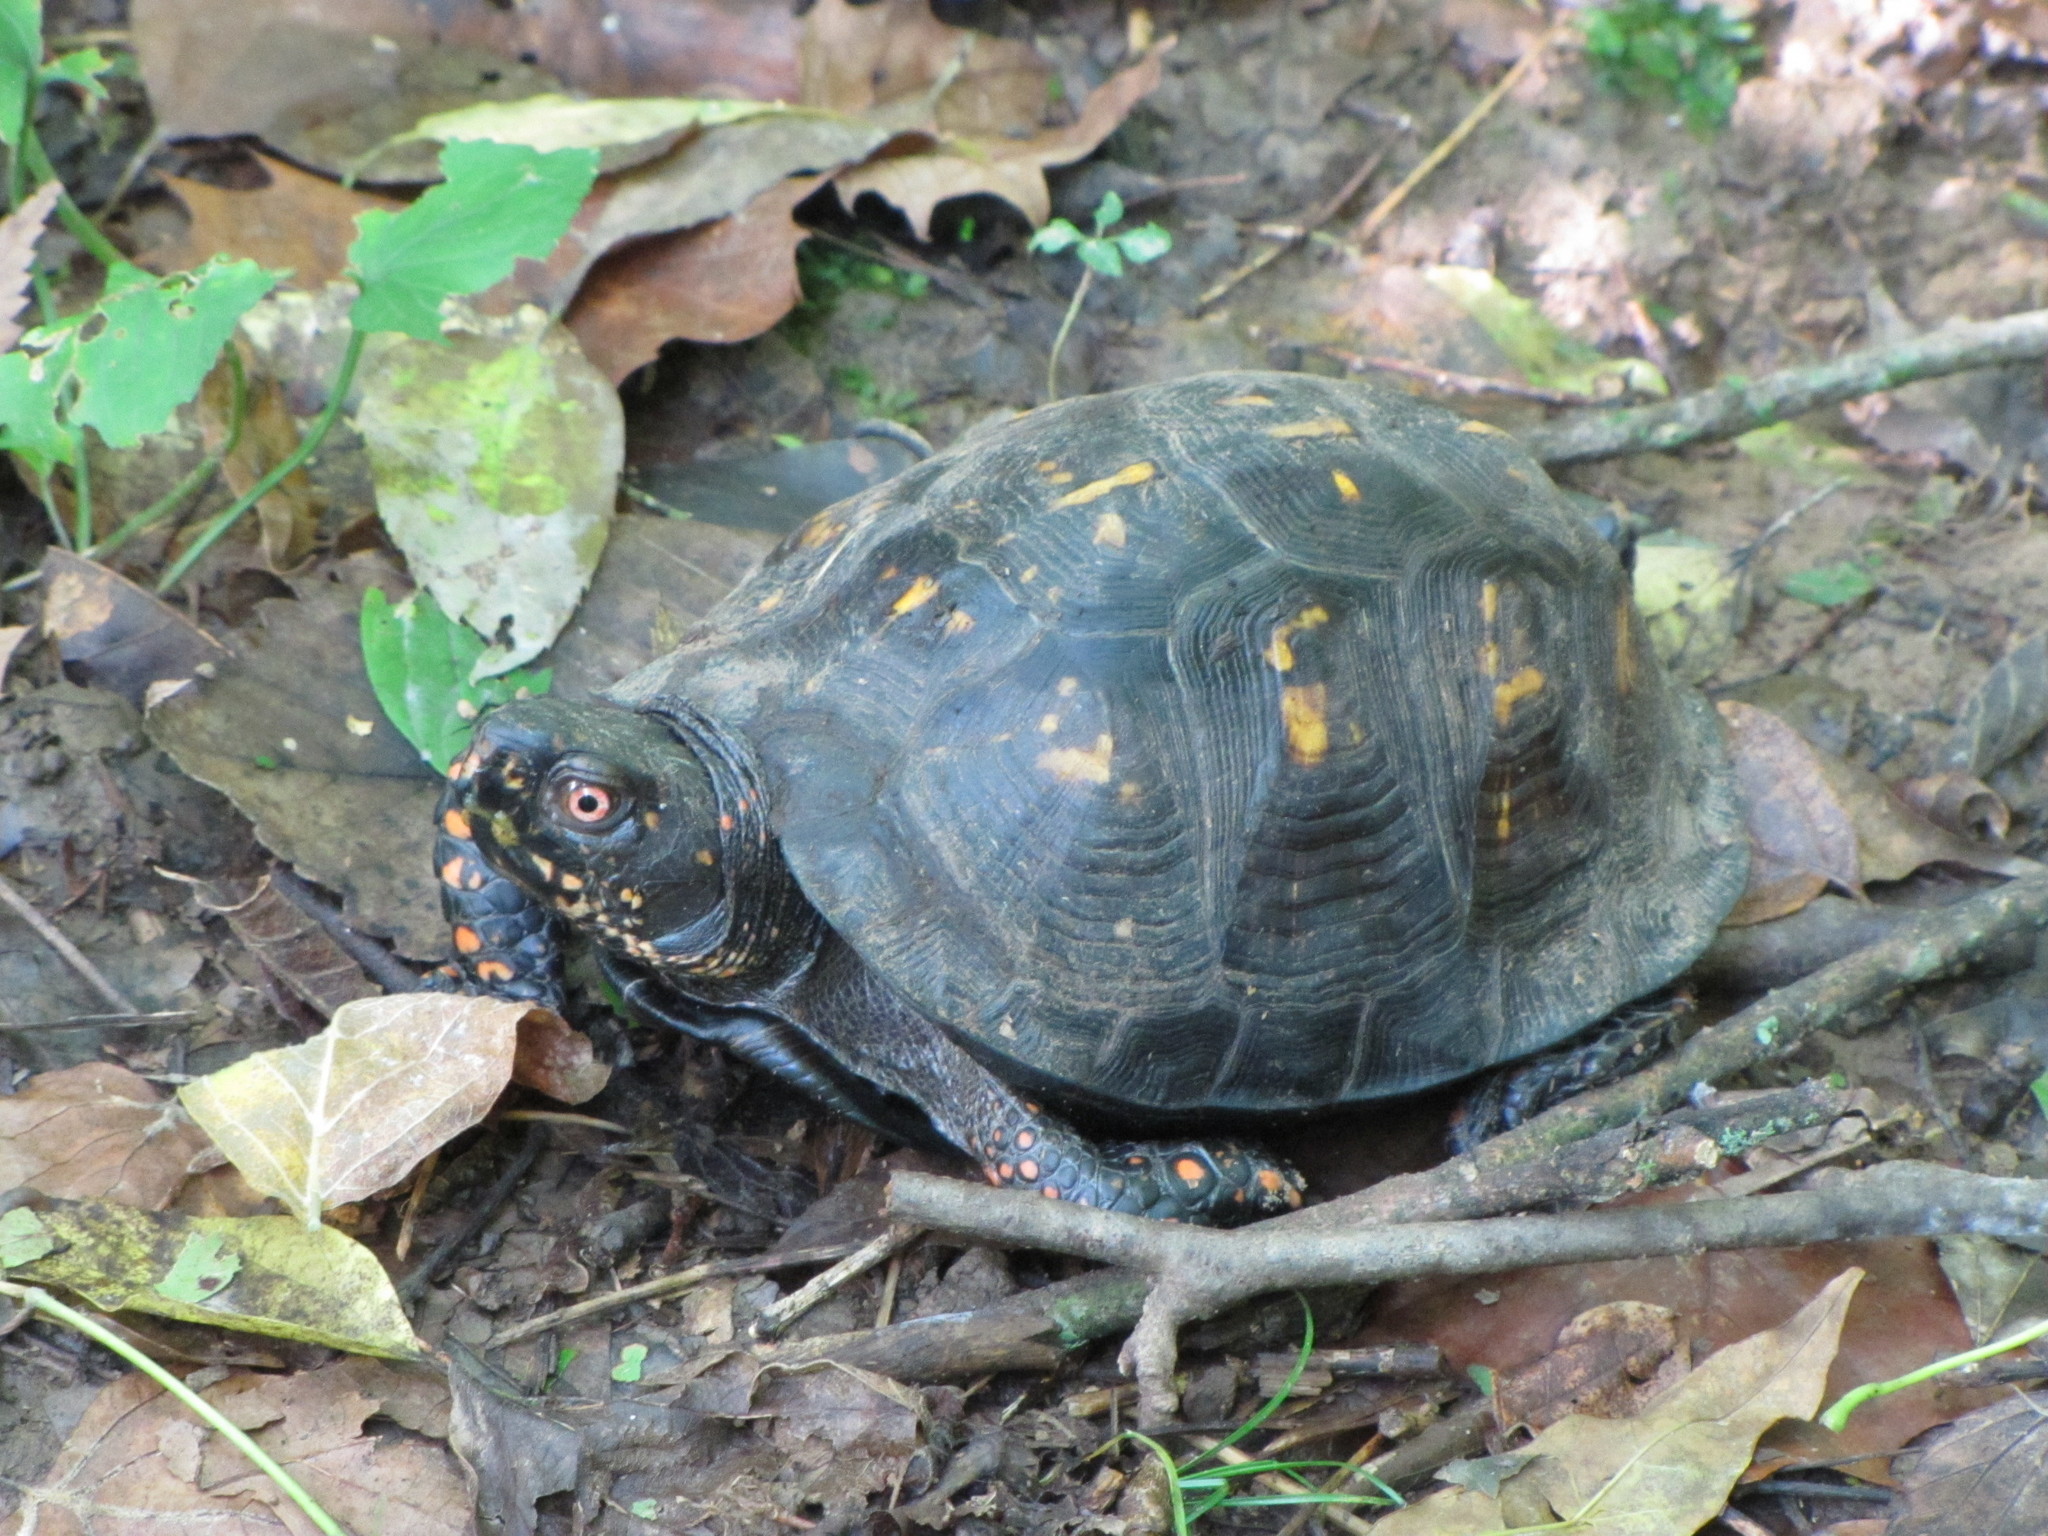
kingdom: Animalia
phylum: Chordata
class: Testudines
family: Emydidae
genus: Terrapene
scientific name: Terrapene carolina
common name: Common box turtle
